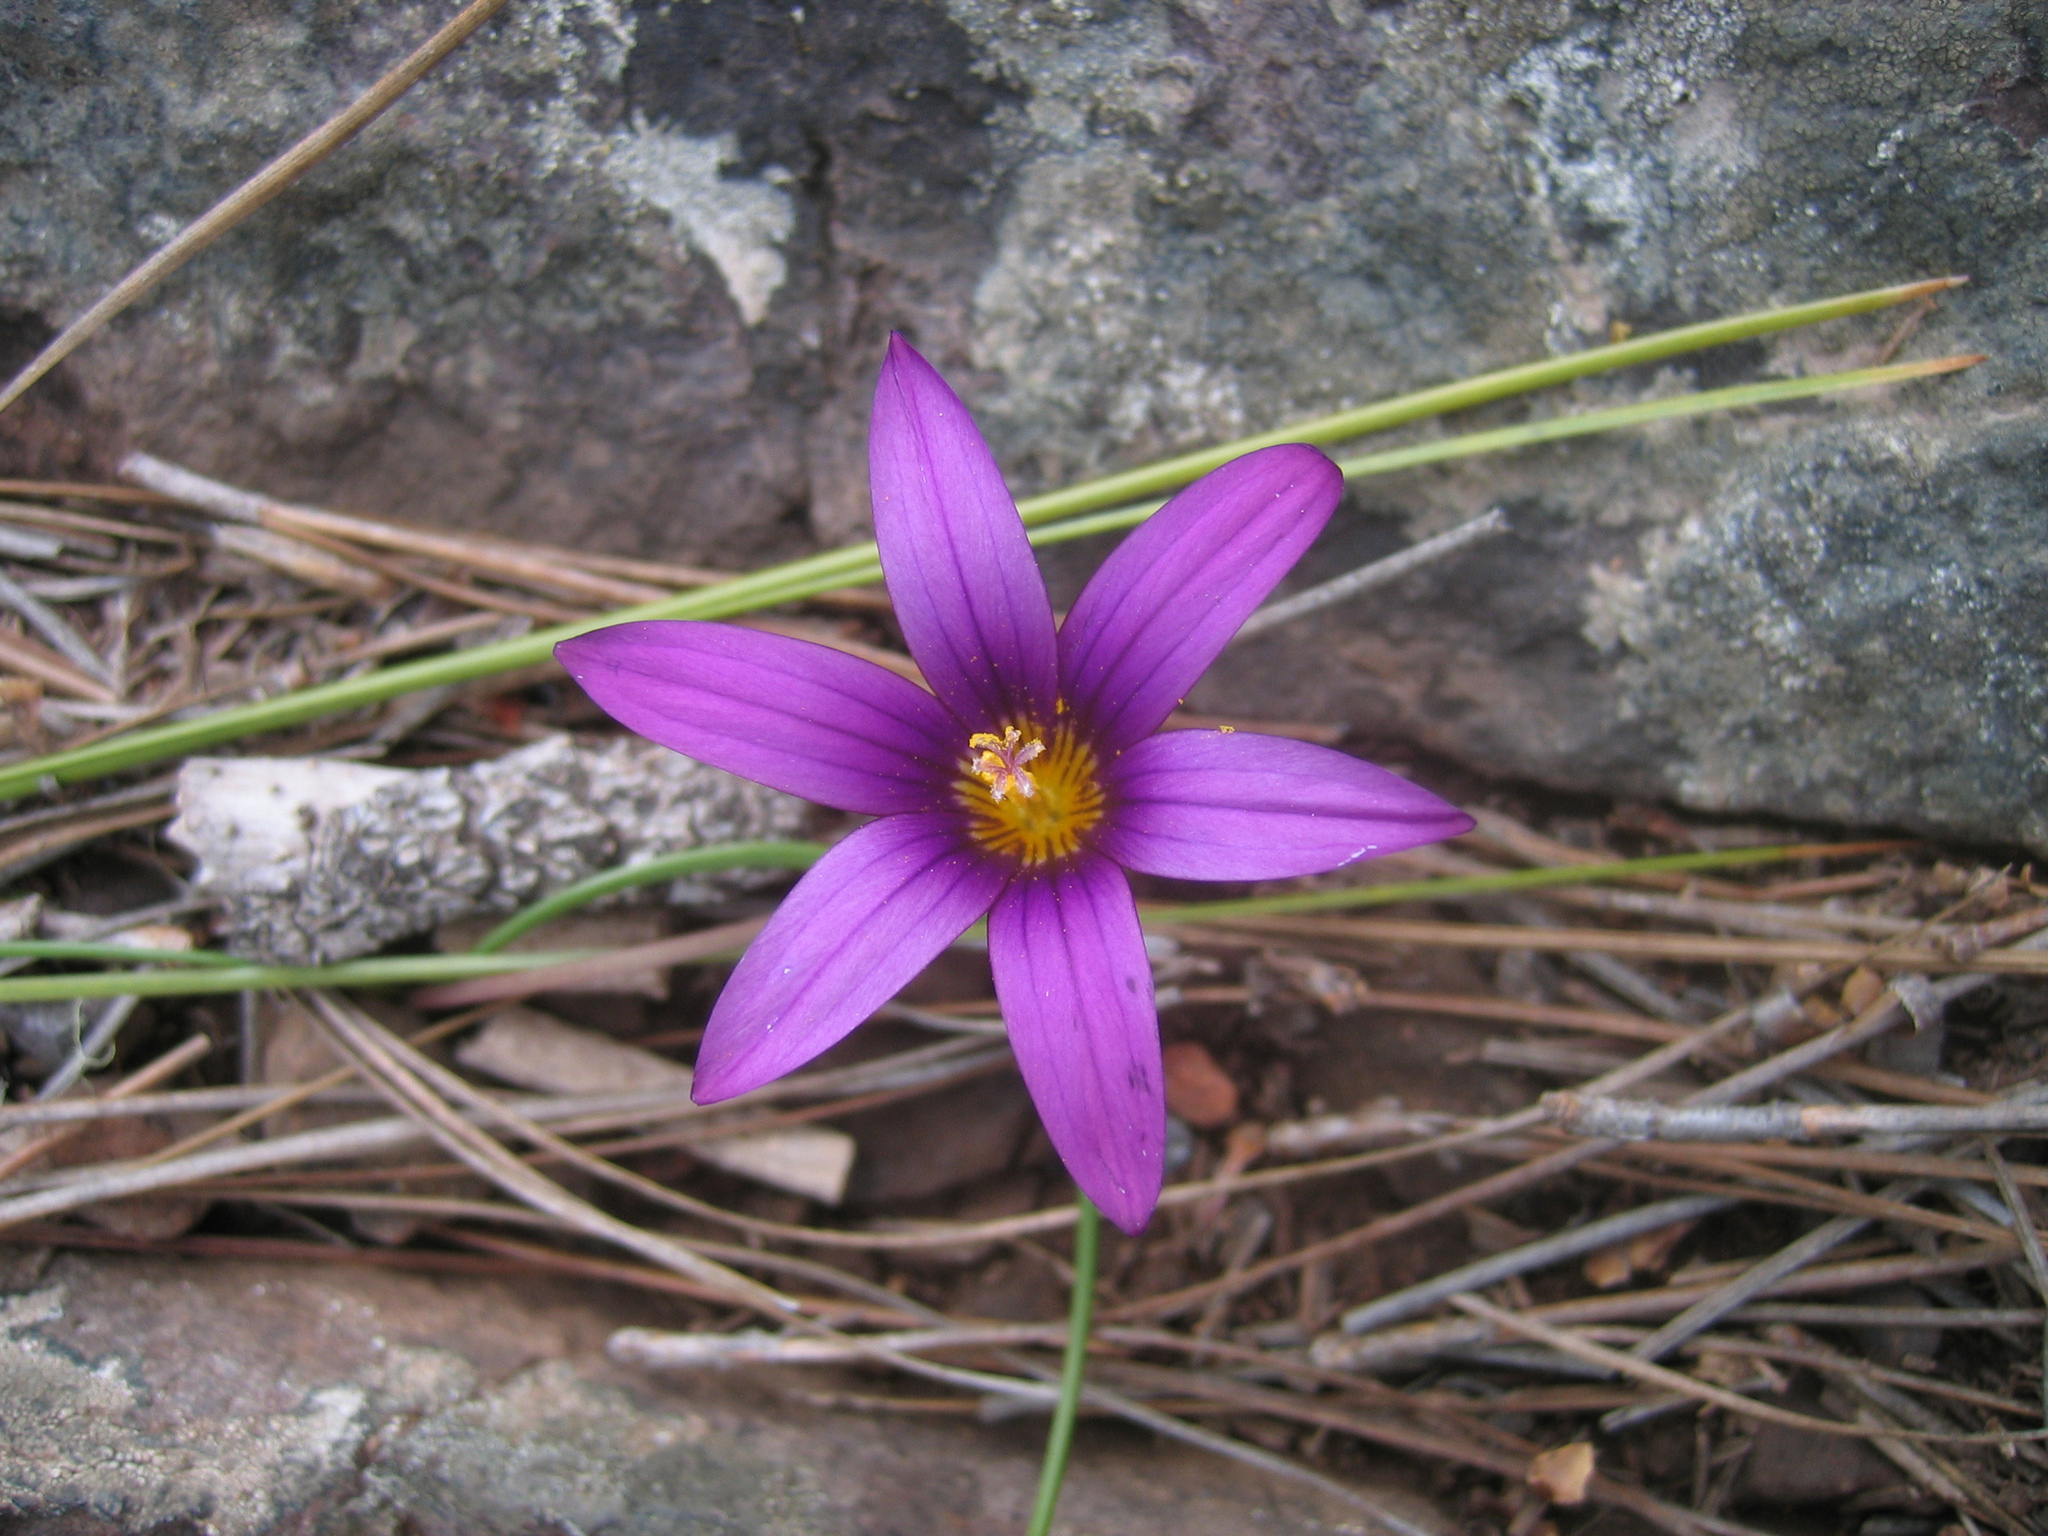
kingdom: Plantae
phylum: Tracheophyta
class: Liliopsida
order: Asparagales
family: Iridaceae
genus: Romulea
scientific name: Romulea columnae
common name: Sand-crocus
